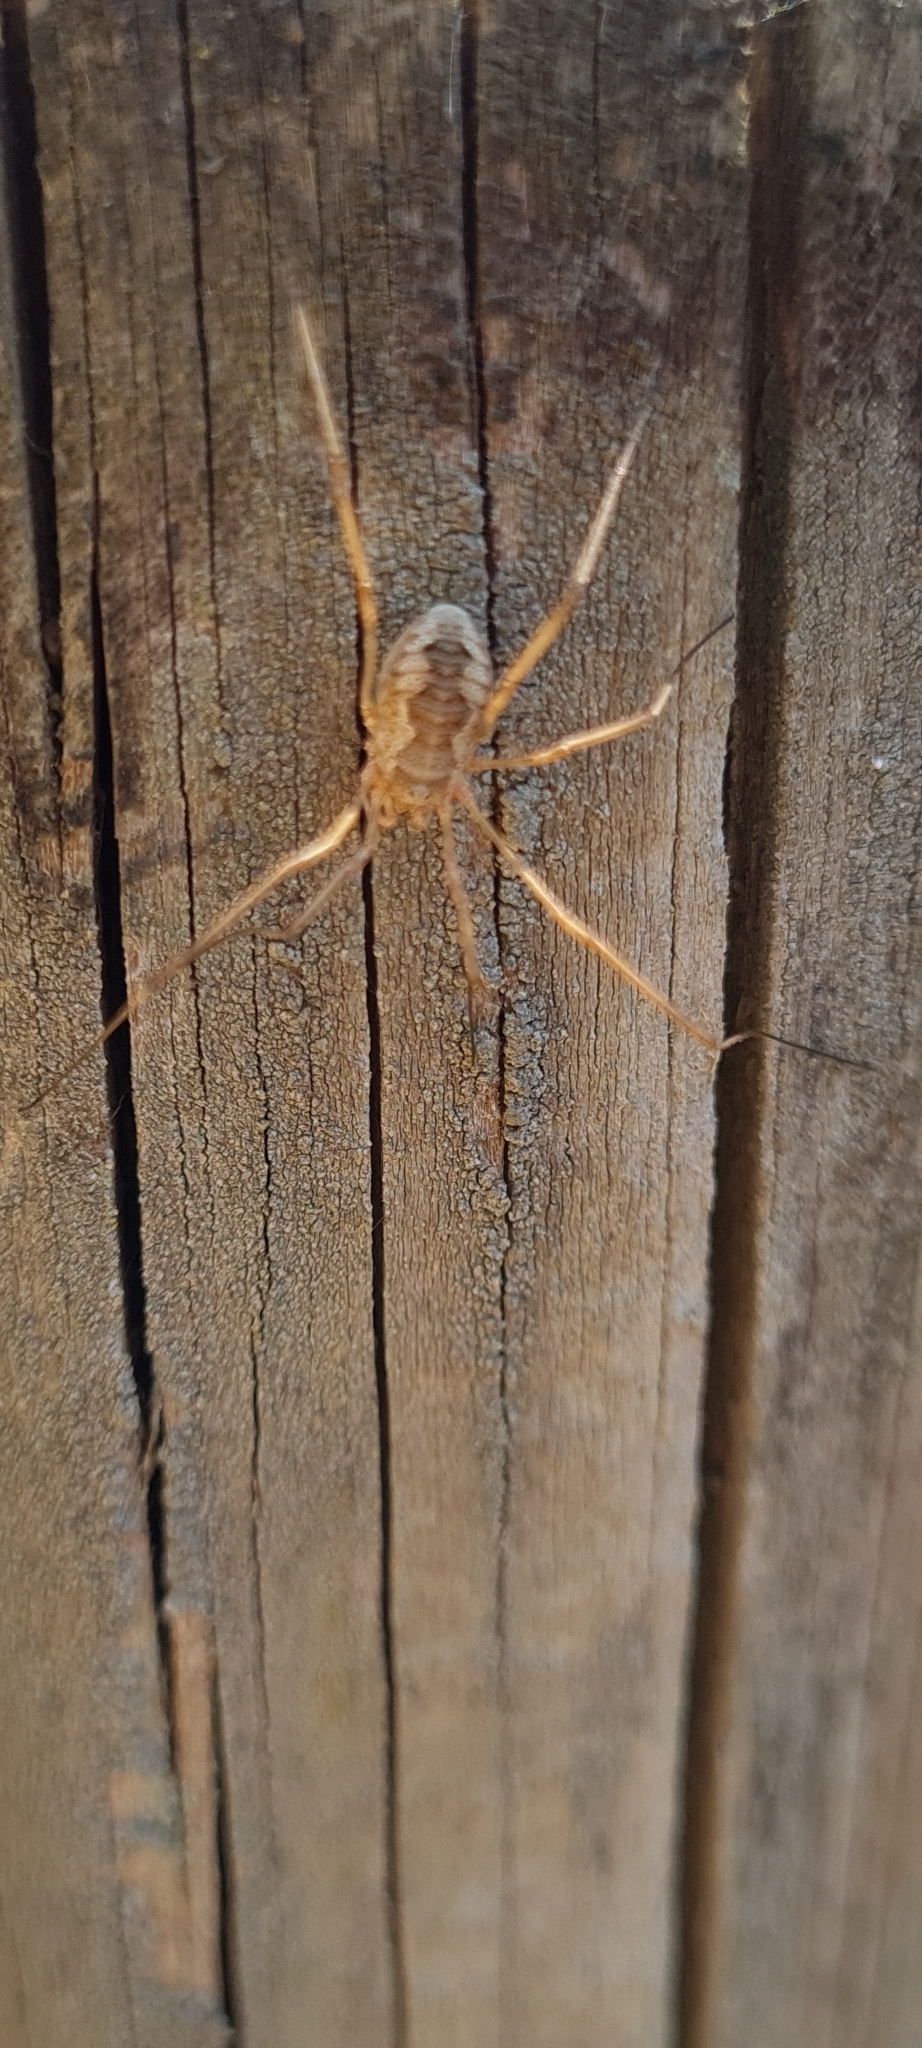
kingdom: Animalia
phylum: Arthropoda
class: Arachnida
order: Opiliones
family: Phalangiidae
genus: Phalangium
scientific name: Phalangium opilio
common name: Daddy longleg
